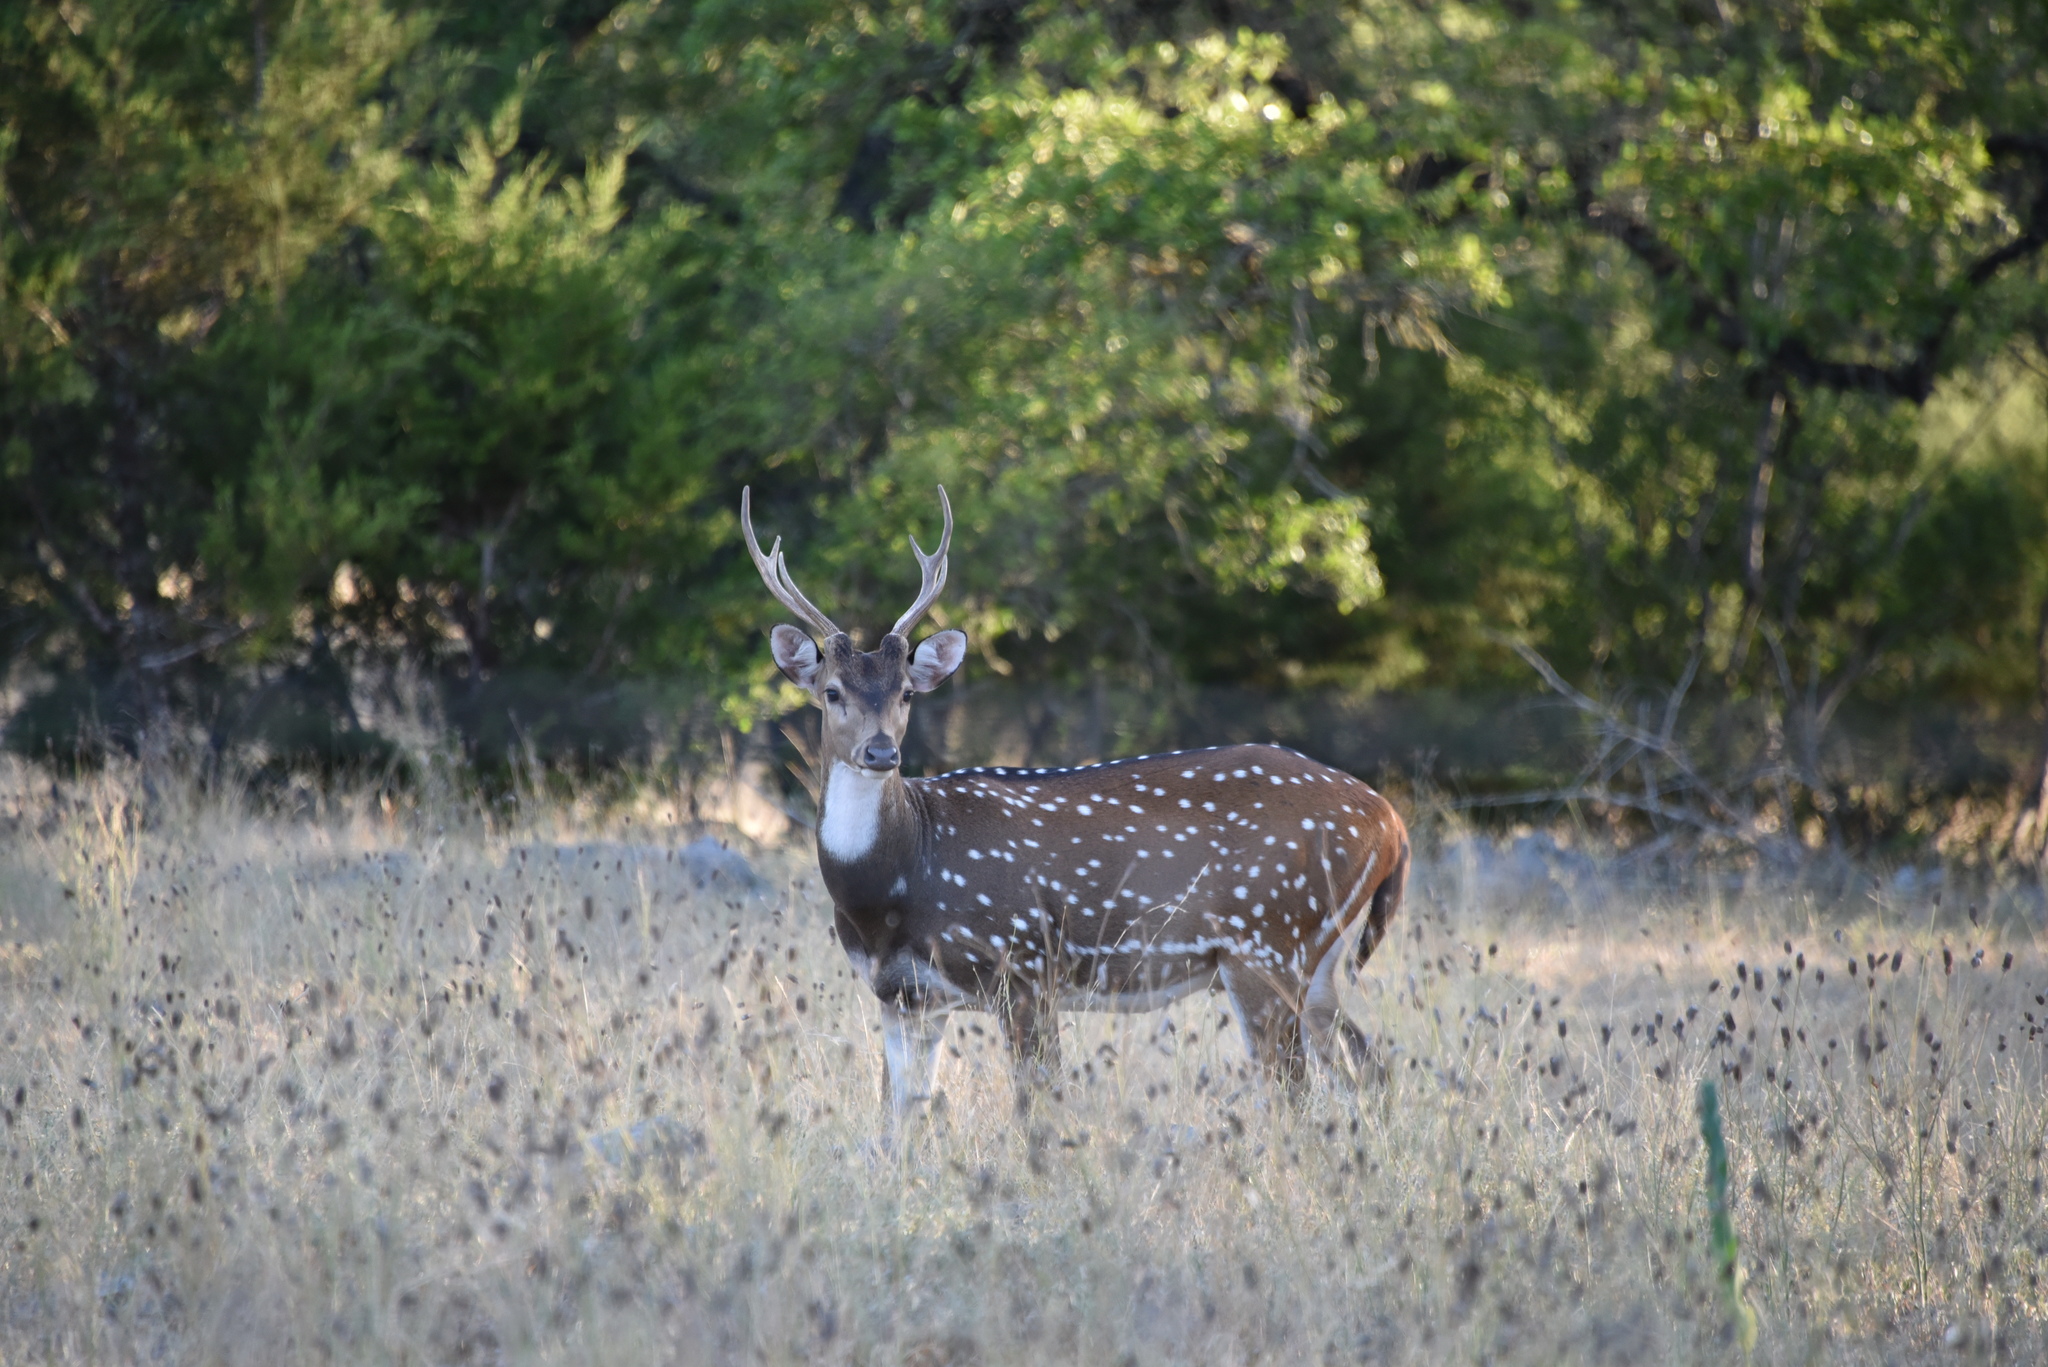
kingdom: Animalia
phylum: Chordata
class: Mammalia
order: Artiodactyla
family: Cervidae
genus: Axis
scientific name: Axis axis
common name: Chital
